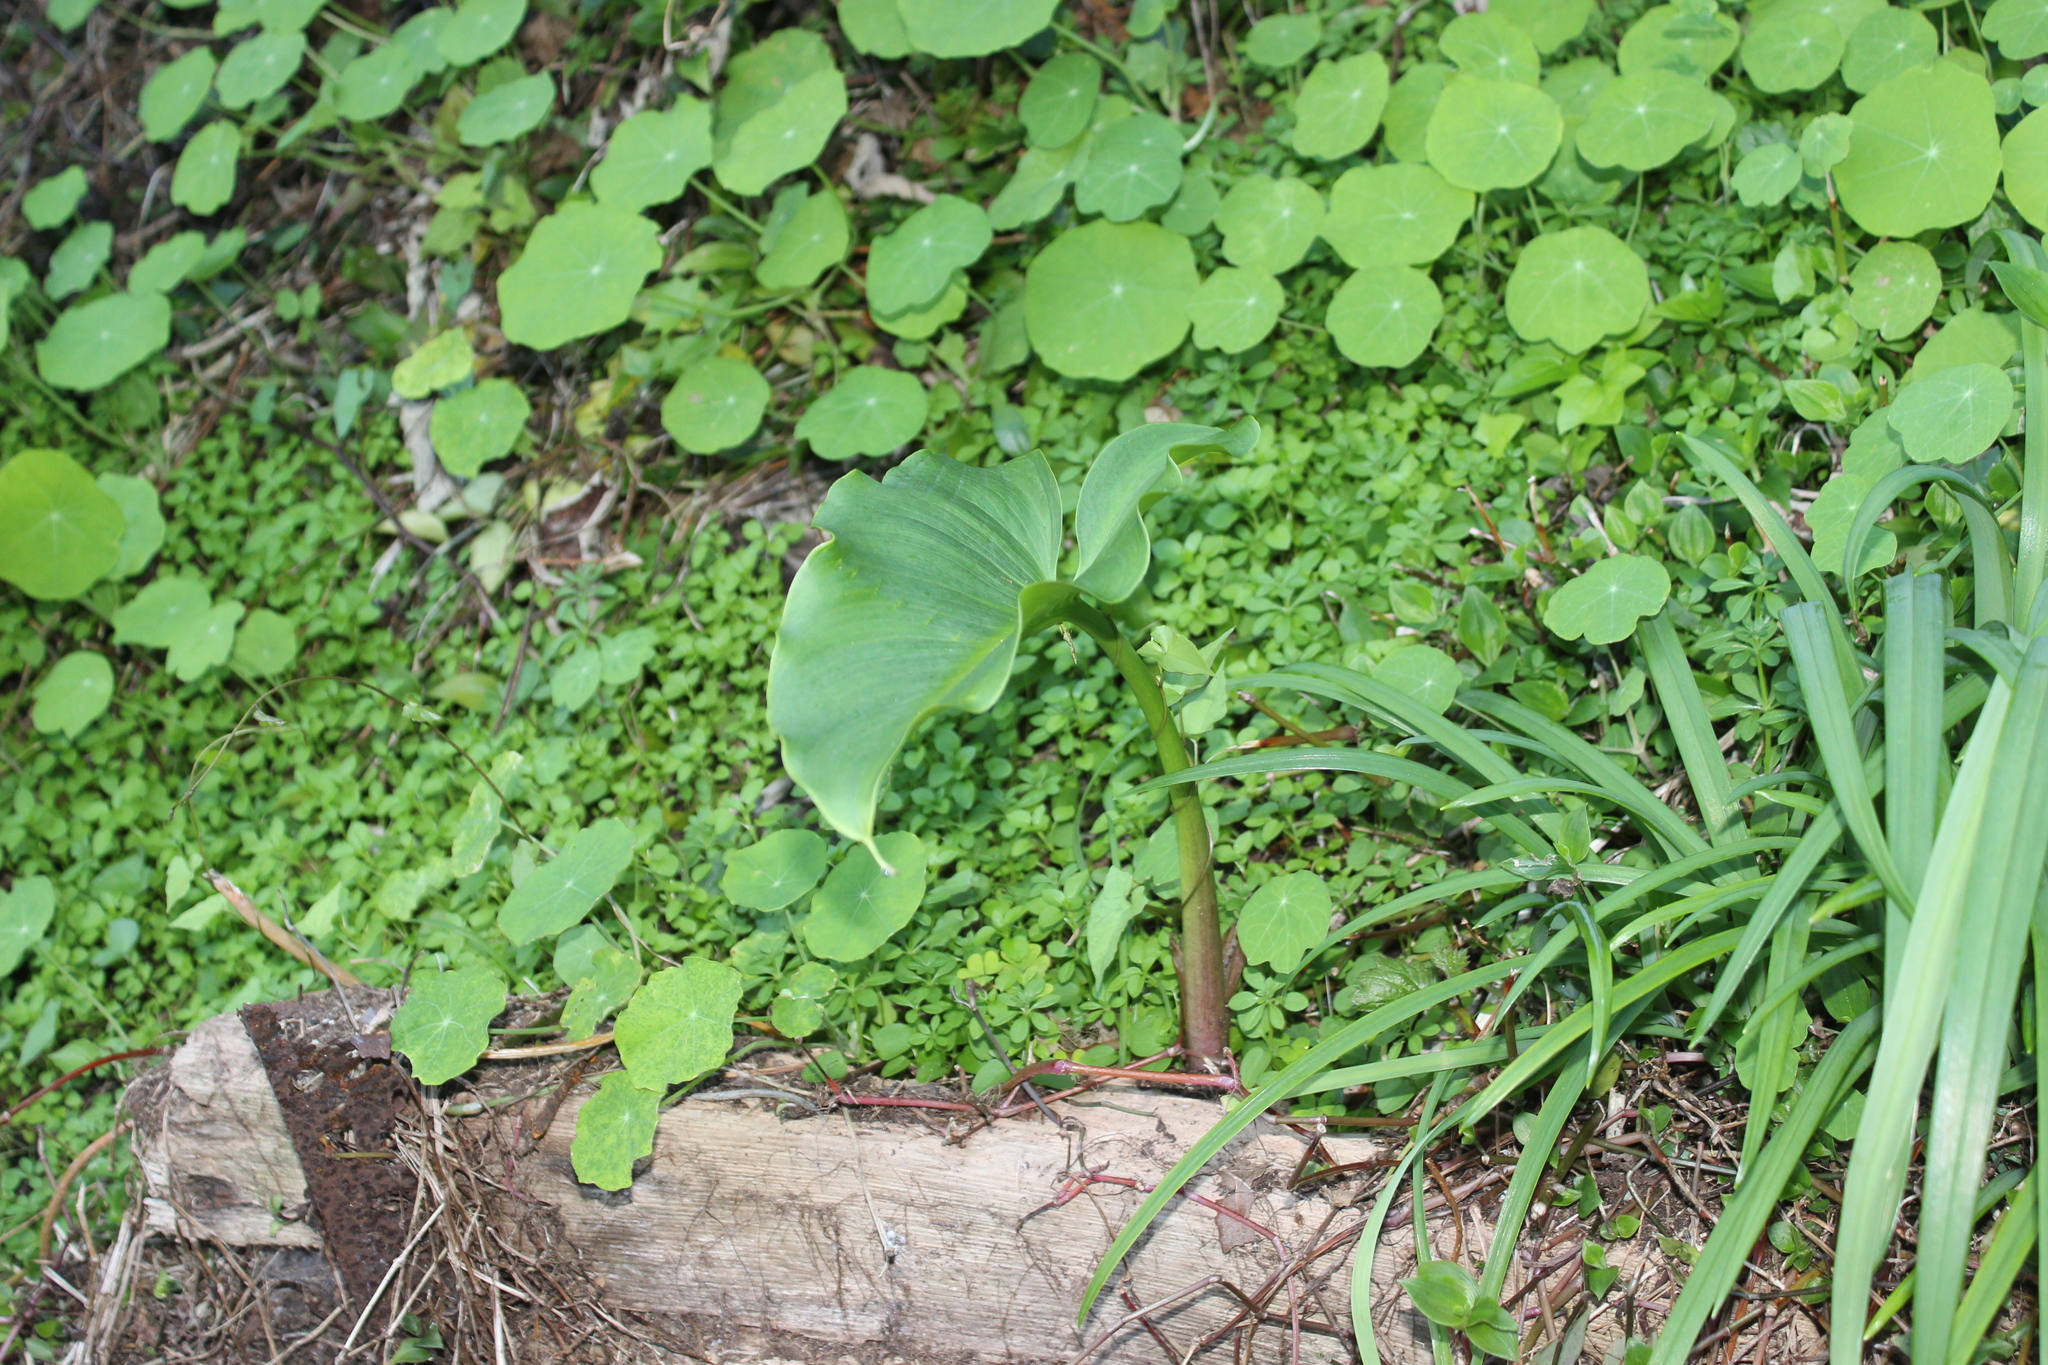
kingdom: Plantae
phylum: Tracheophyta
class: Liliopsida
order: Alismatales
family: Araceae
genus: Zantedeschia
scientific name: Zantedeschia aethiopica
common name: Altar-lily
